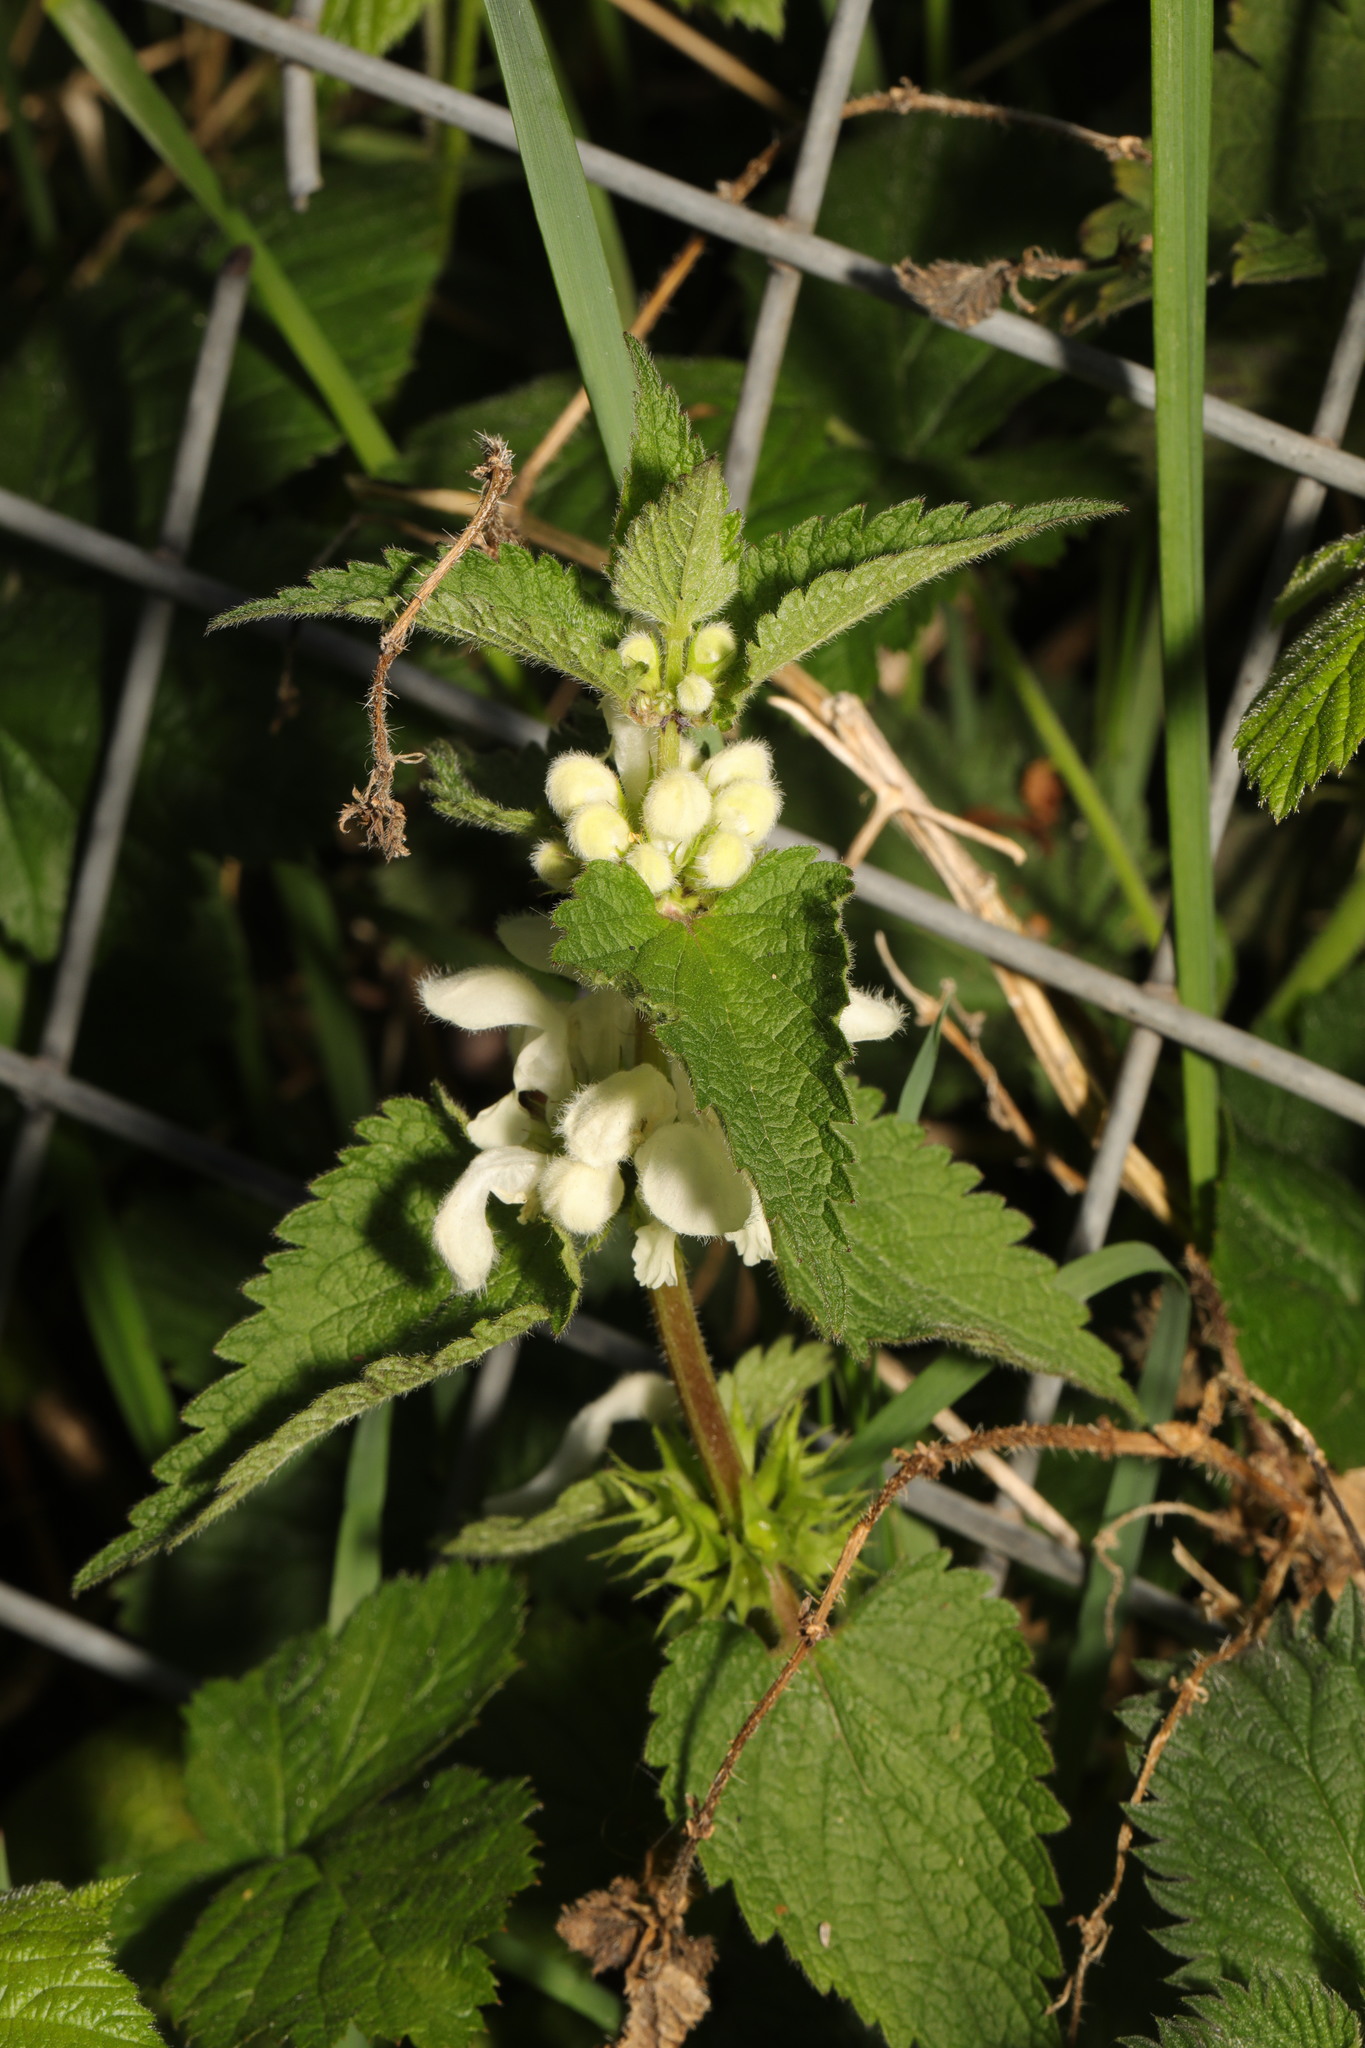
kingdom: Plantae
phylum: Tracheophyta
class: Magnoliopsida
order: Lamiales
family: Lamiaceae
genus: Lamium
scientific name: Lamium album
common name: White dead-nettle
